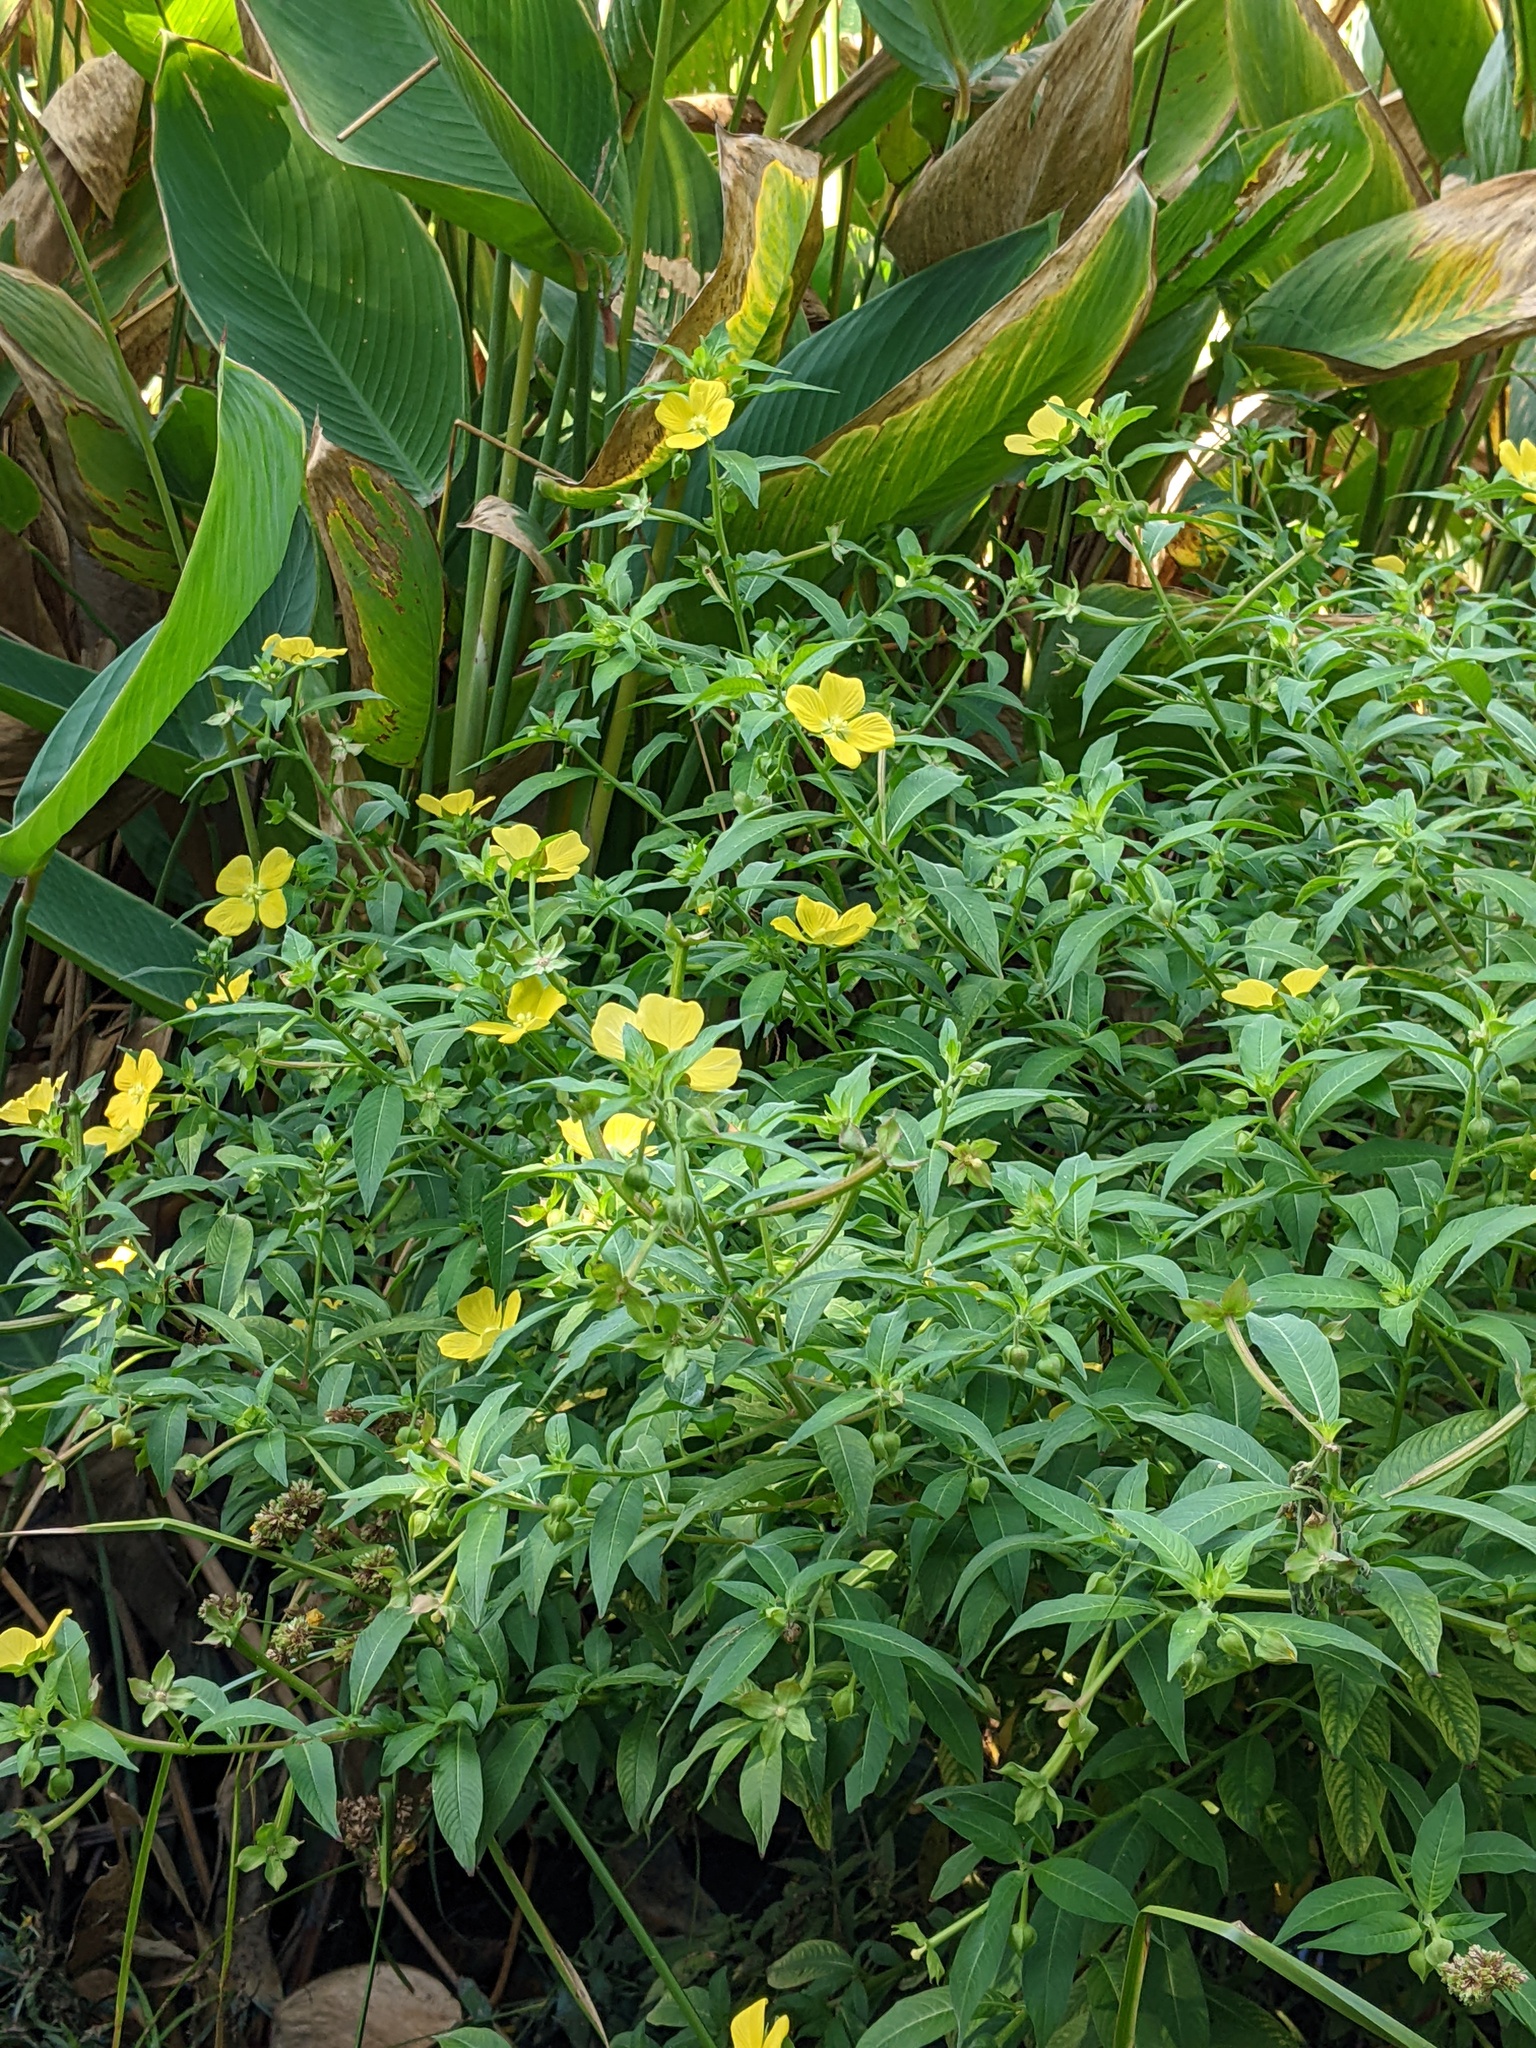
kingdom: Plantae
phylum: Tracheophyta
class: Magnoliopsida
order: Myrtales
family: Onagraceae
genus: Ludwigia
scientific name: Ludwigia octovalvis
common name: Water-primrose
